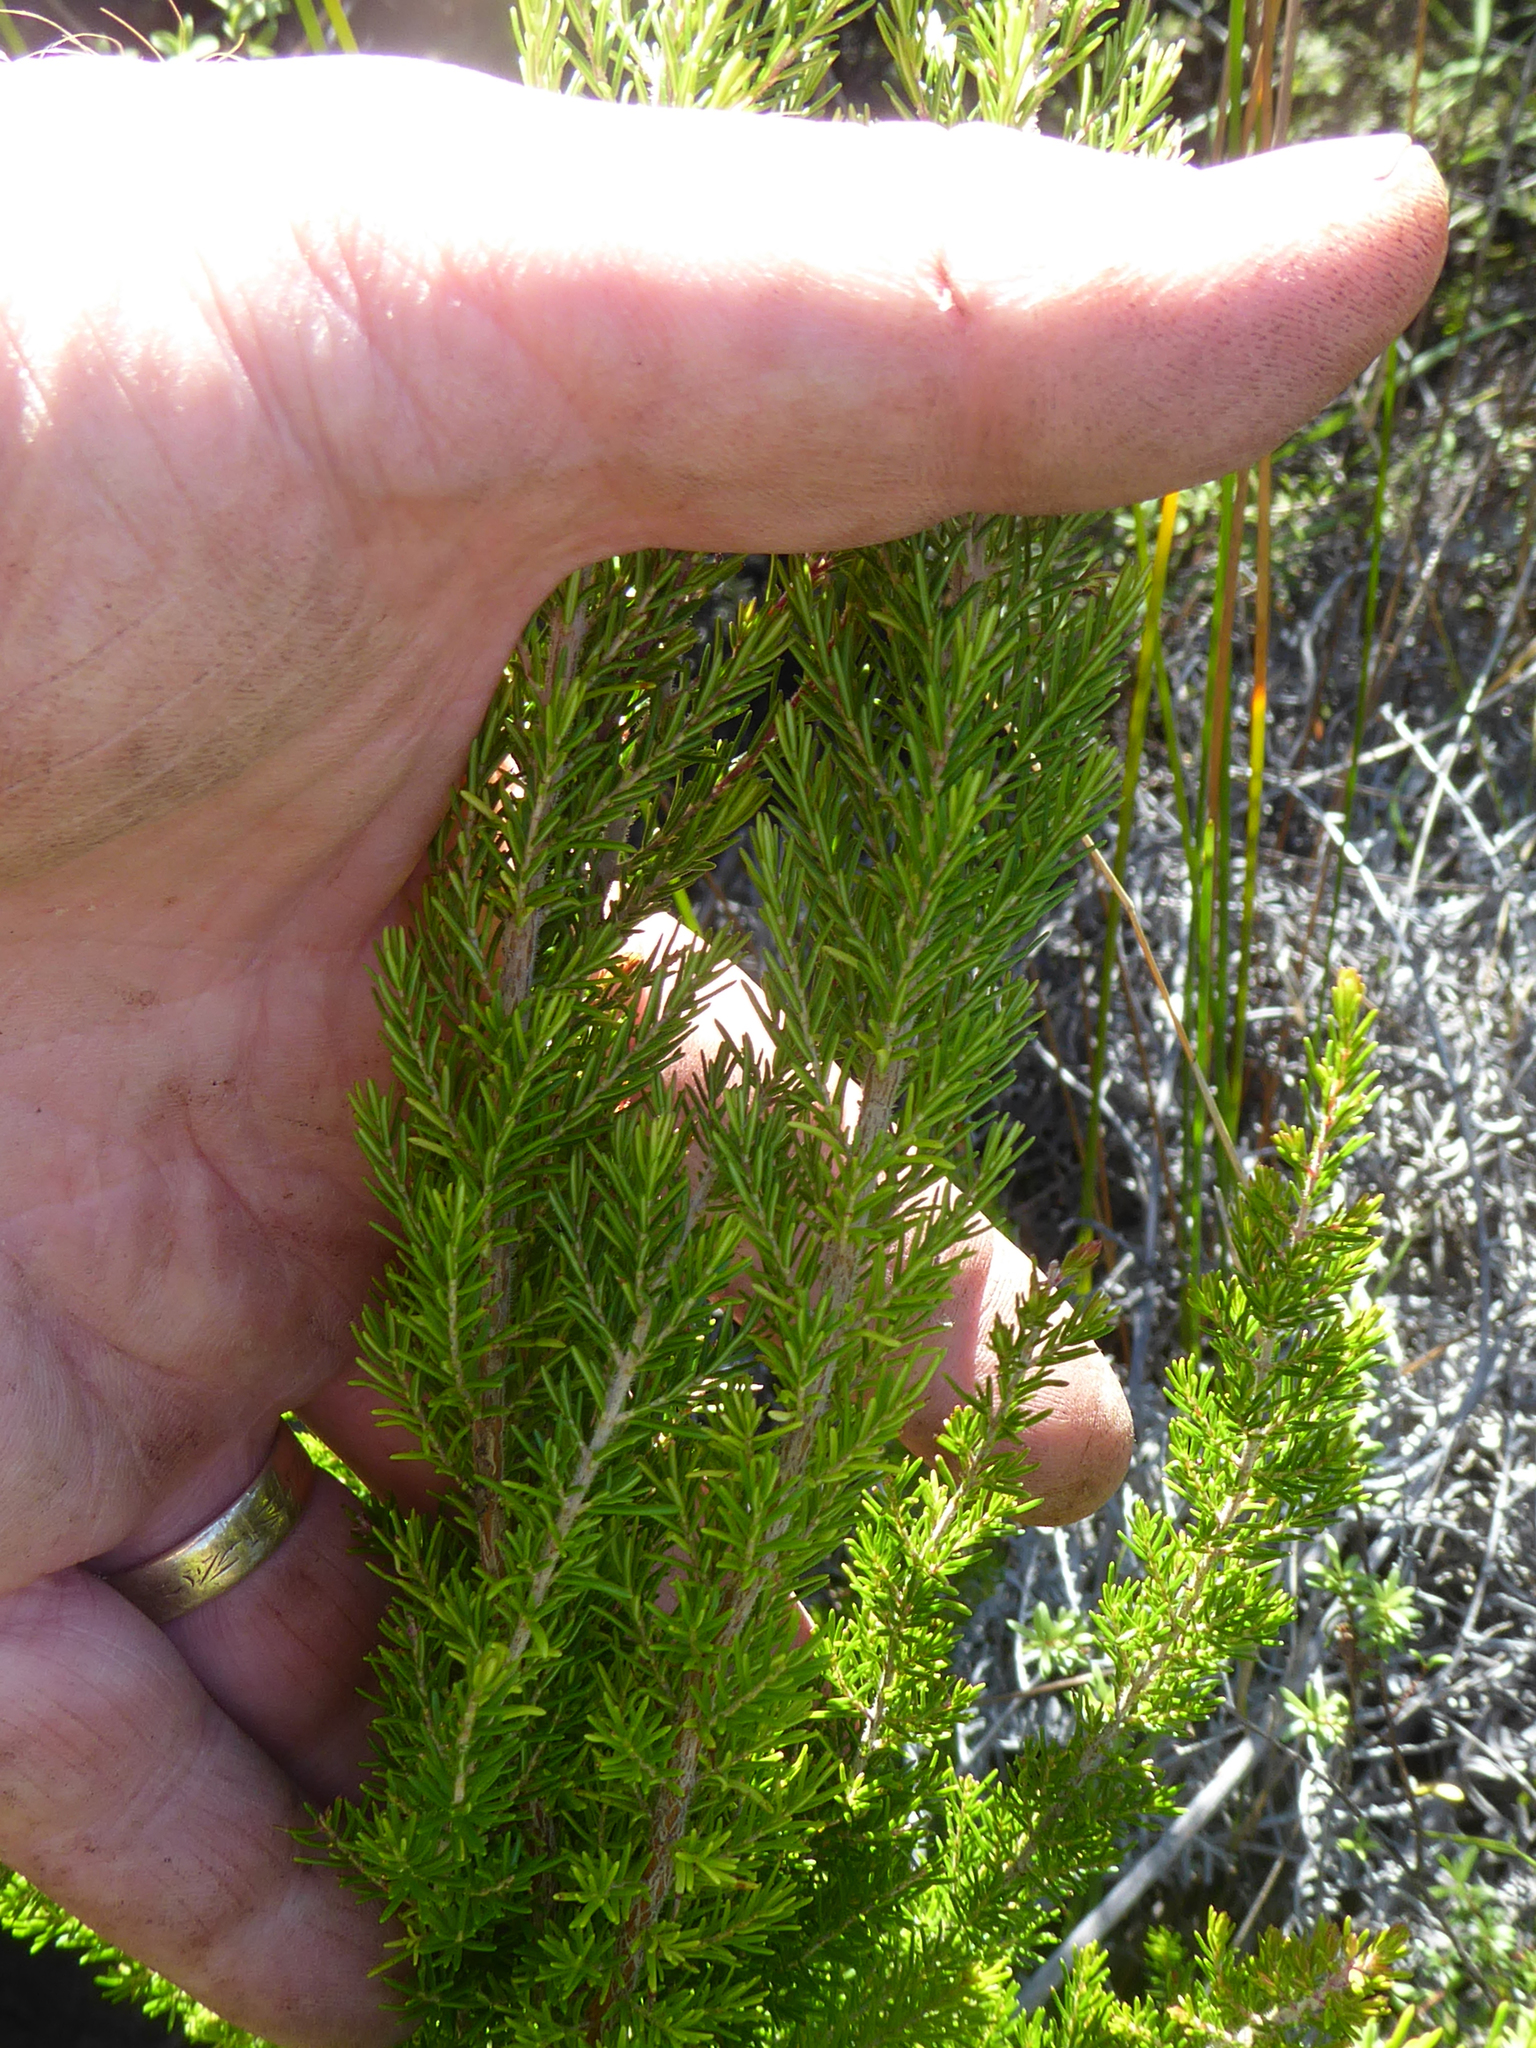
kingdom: Plantae
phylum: Tracheophyta
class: Magnoliopsida
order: Ericales
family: Ericaceae
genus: Erica
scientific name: Erica lusitanica
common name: Spanish heath
